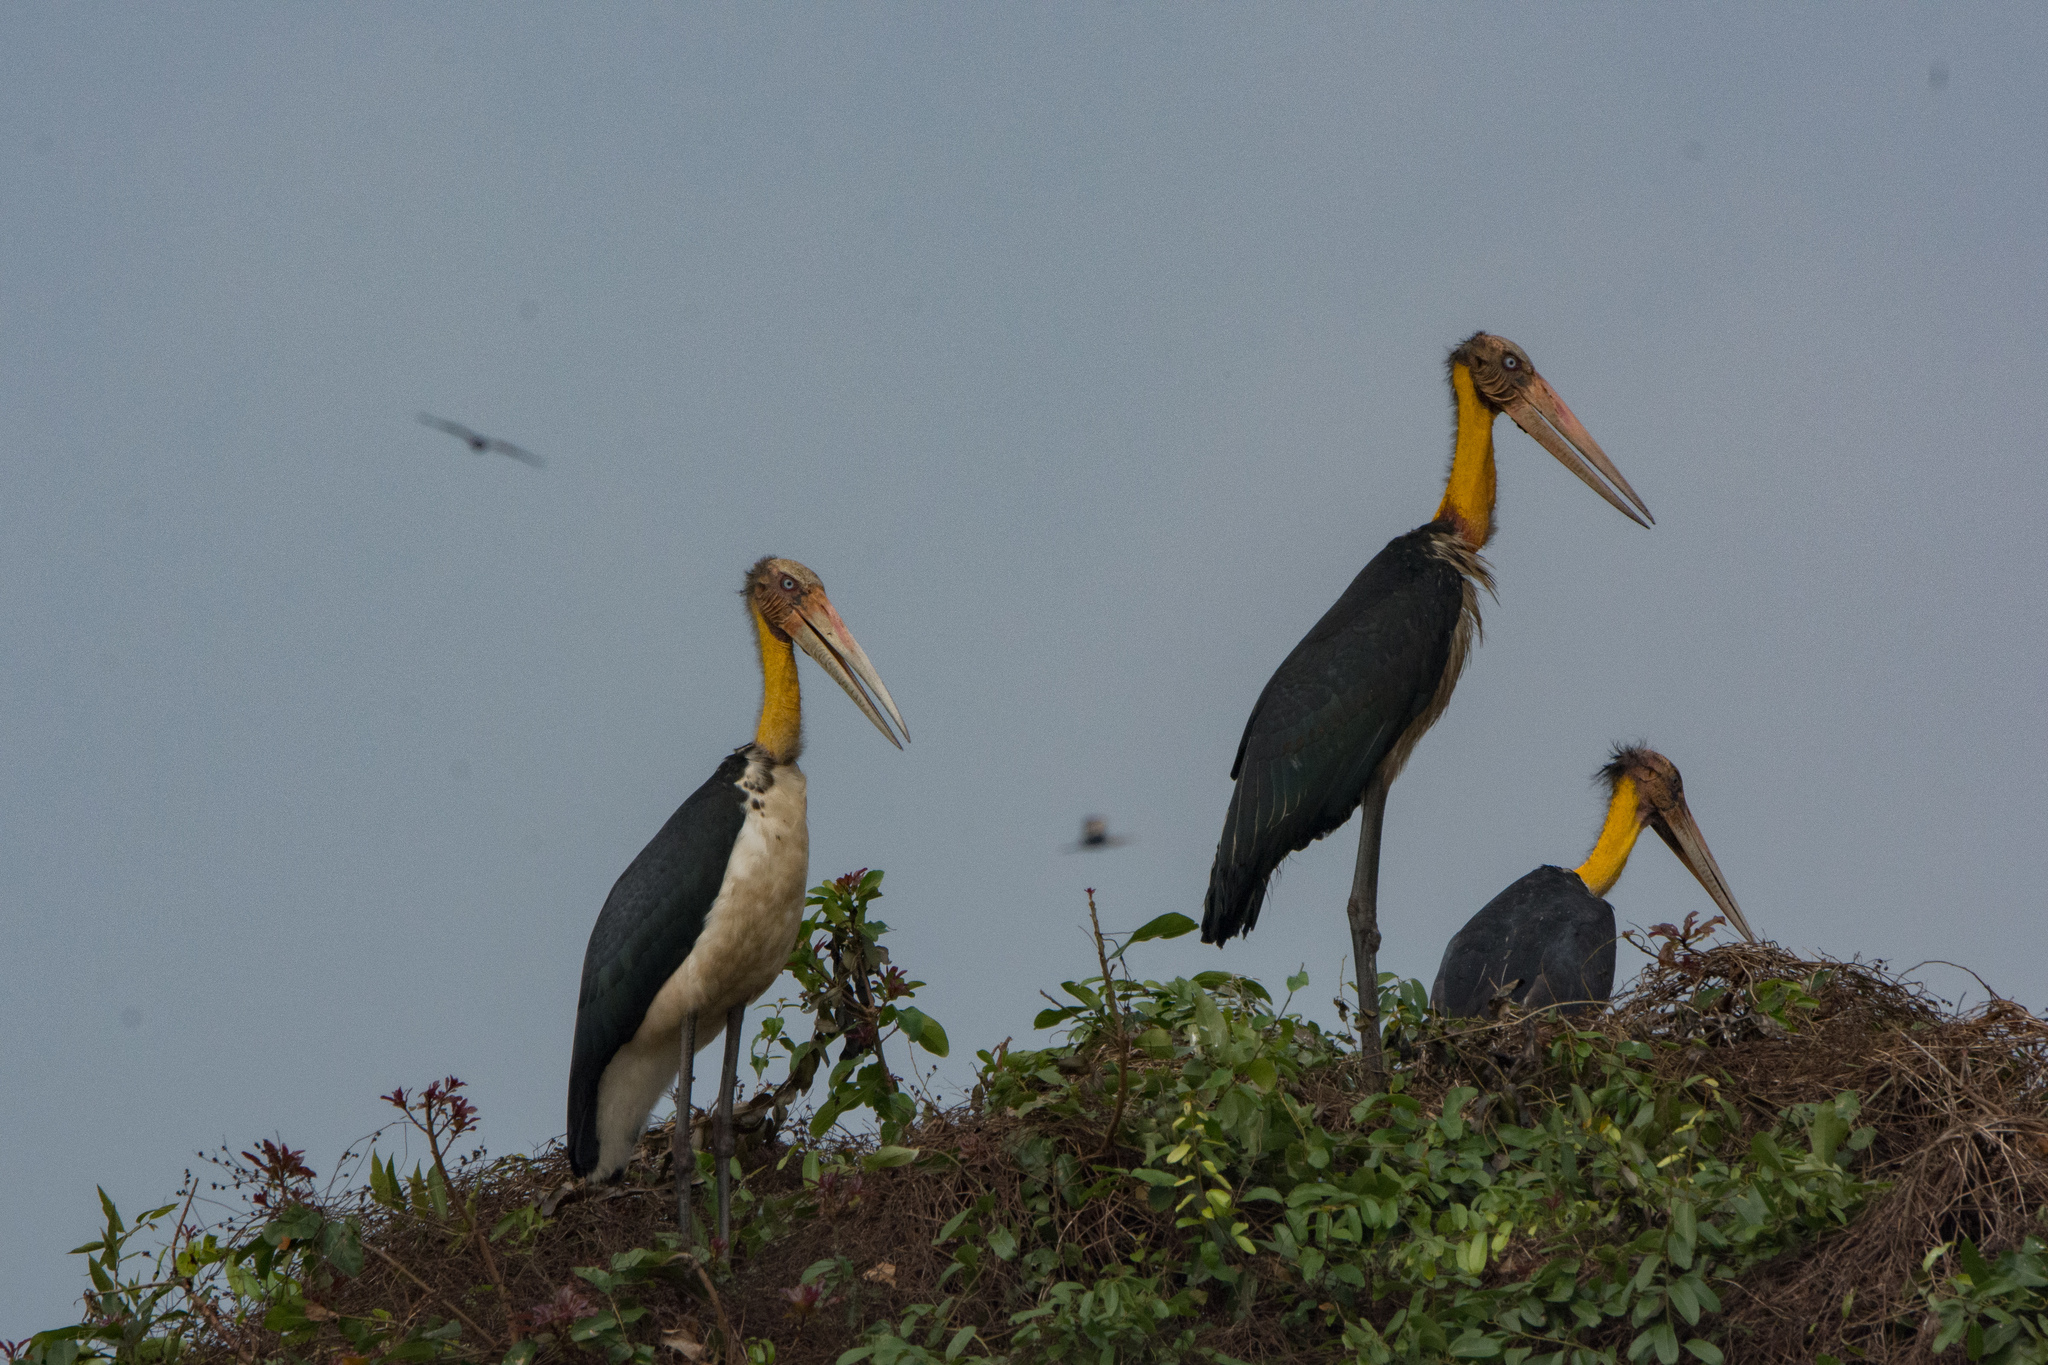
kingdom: Animalia
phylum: Chordata
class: Aves
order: Ciconiiformes
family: Ciconiidae
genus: Leptoptilos
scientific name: Leptoptilos javanicus
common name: Lesser adjutant
